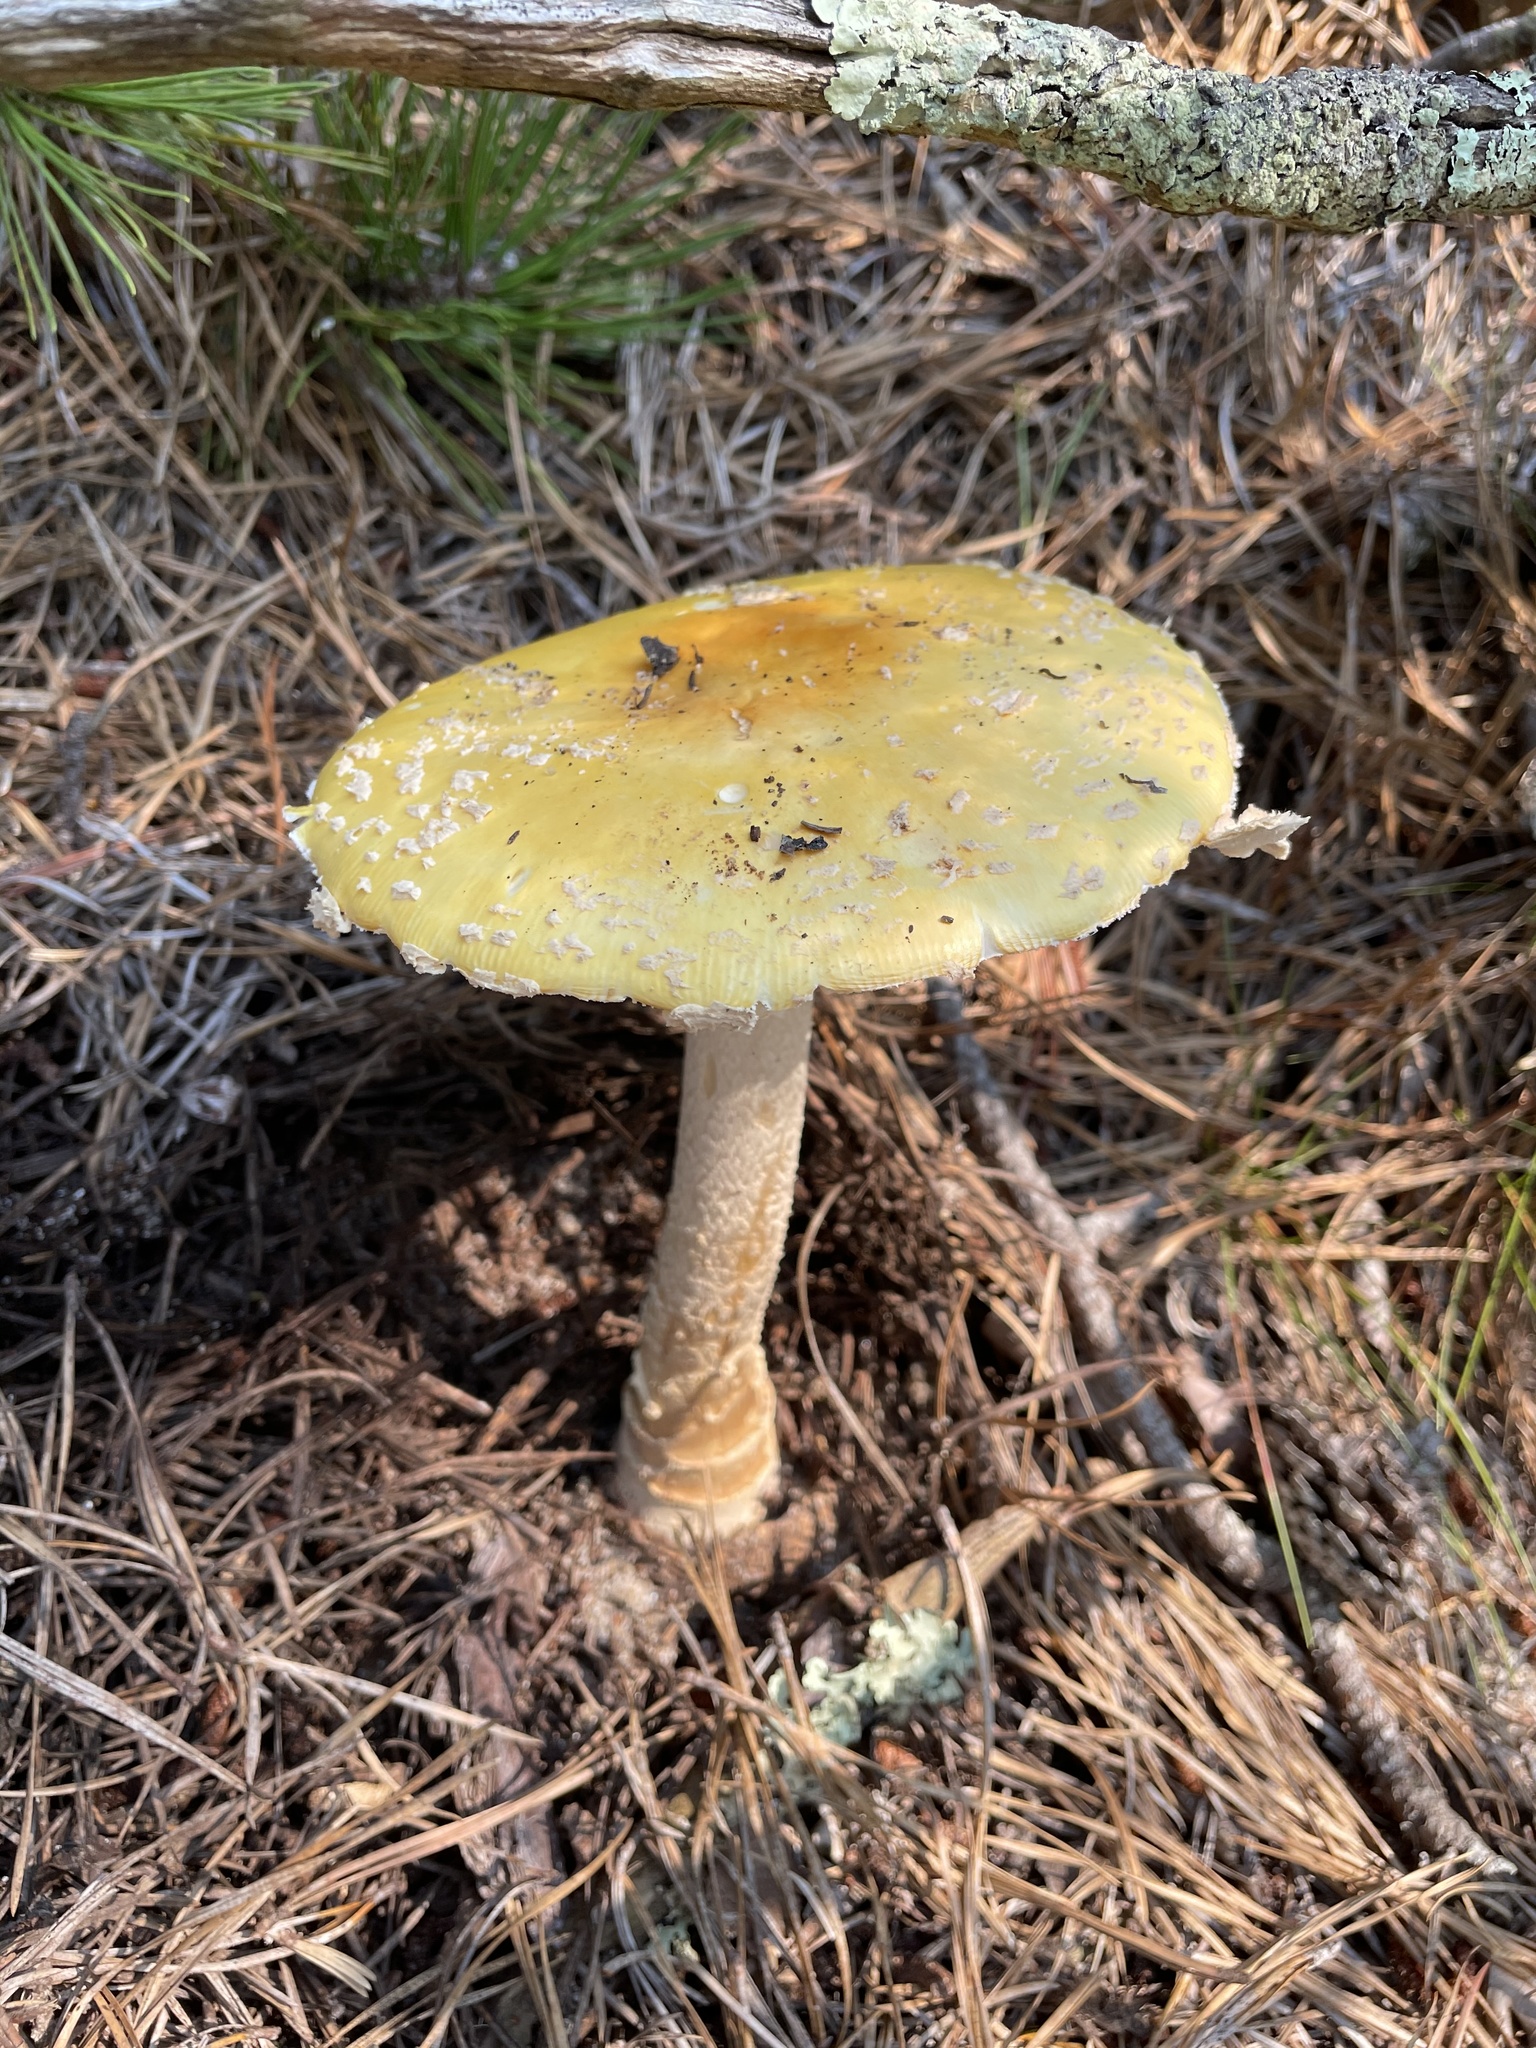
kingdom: Fungi
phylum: Basidiomycota
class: Agaricomycetes
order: Agaricales
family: Amanitaceae
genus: Amanita
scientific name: Amanita muscaria
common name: Fly agaric
